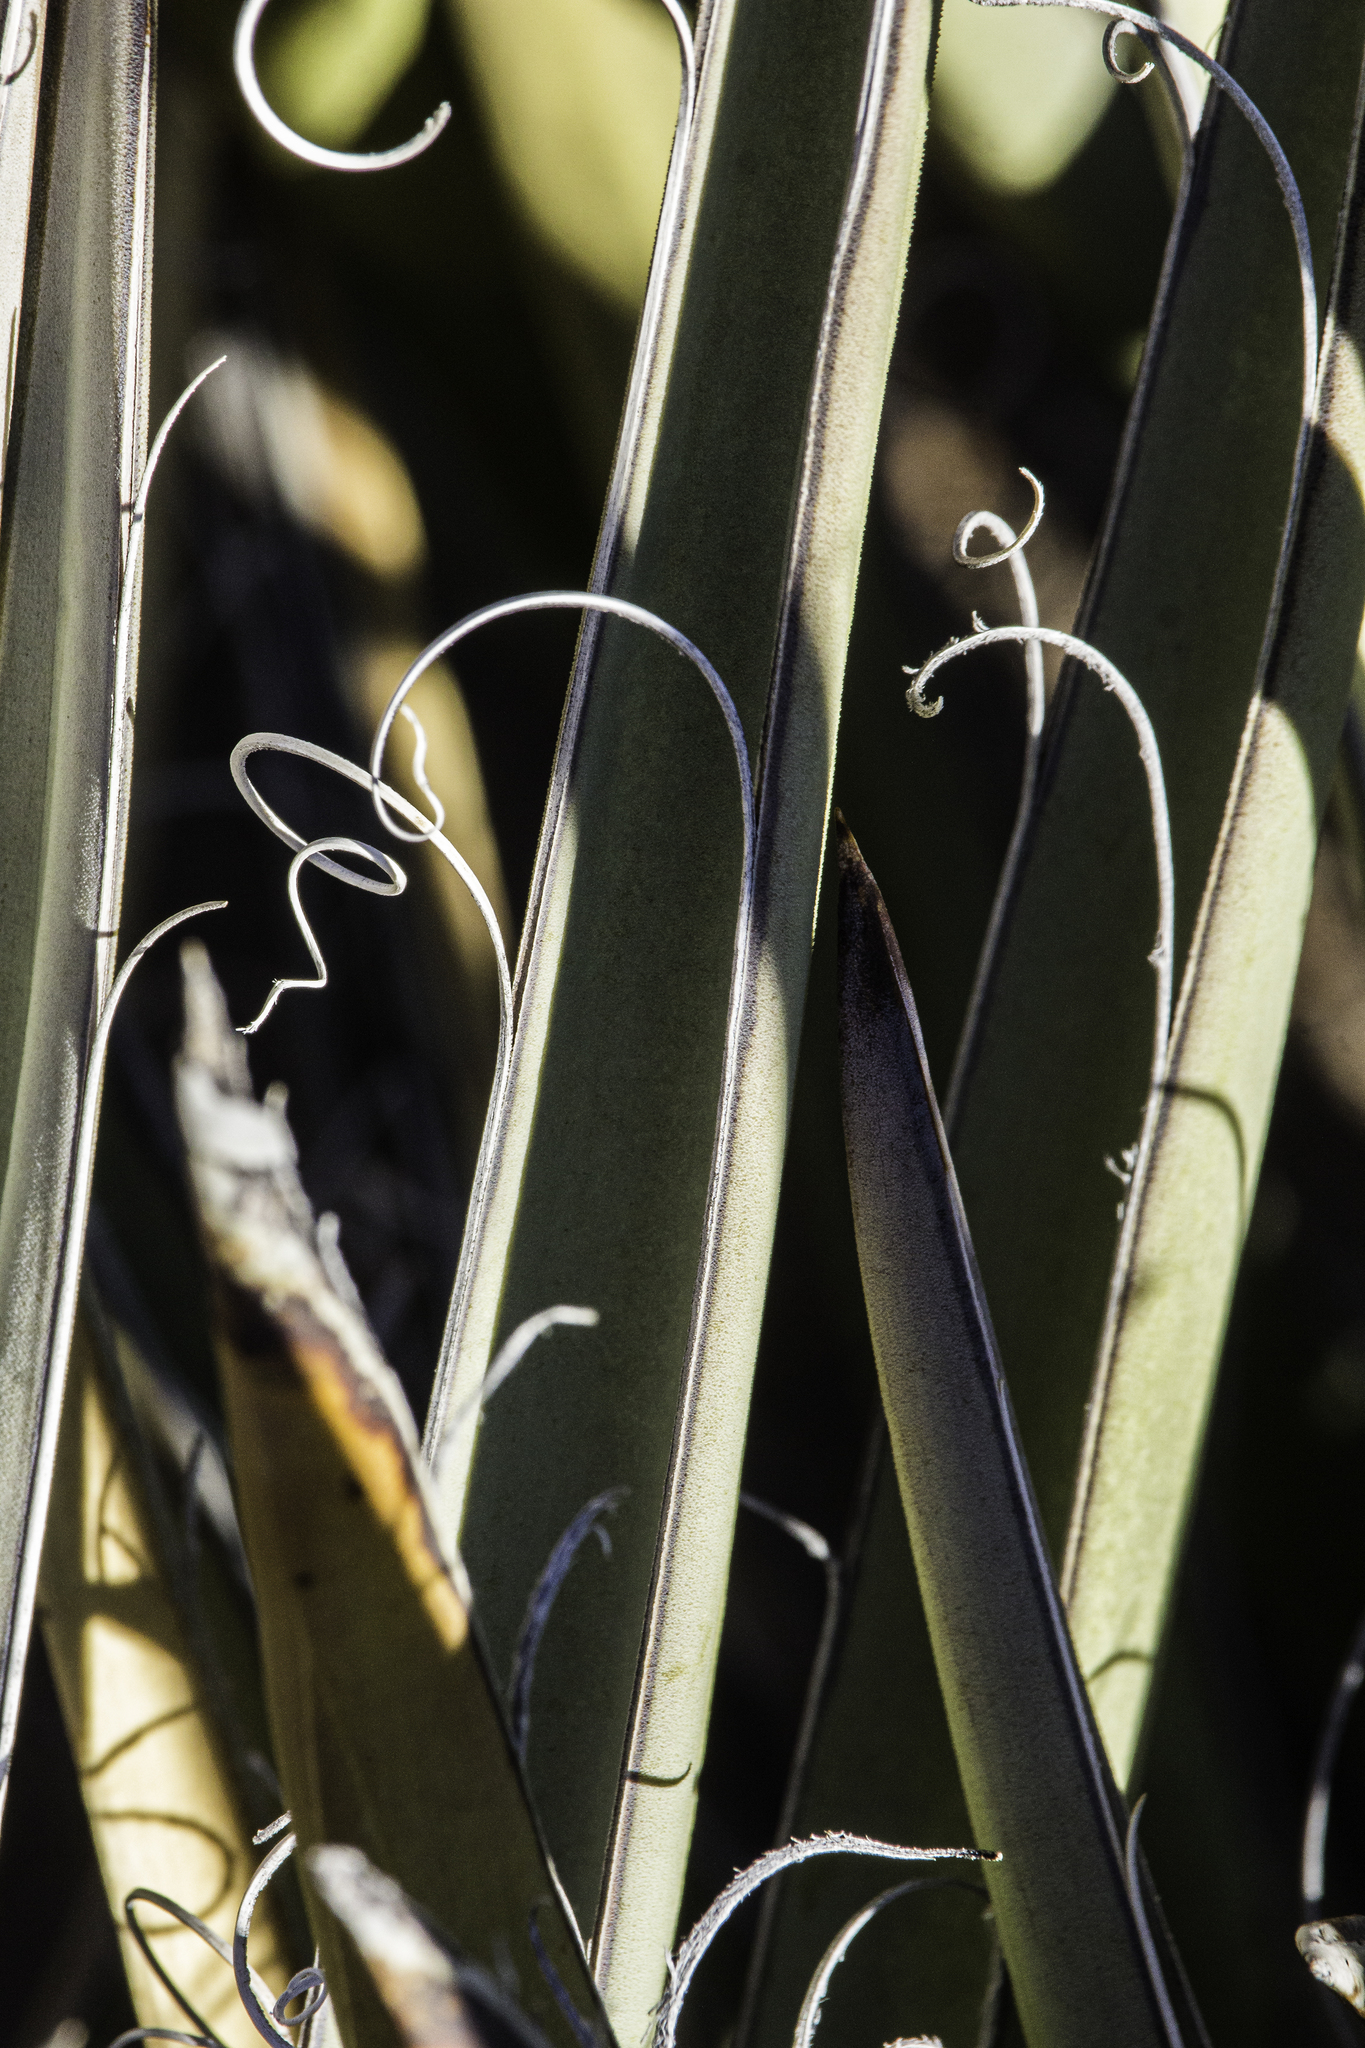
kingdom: Plantae
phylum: Tracheophyta
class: Liliopsida
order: Asparagales
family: Asparagaceae
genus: Yucca
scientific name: Yucca baccata
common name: Banana yucca
